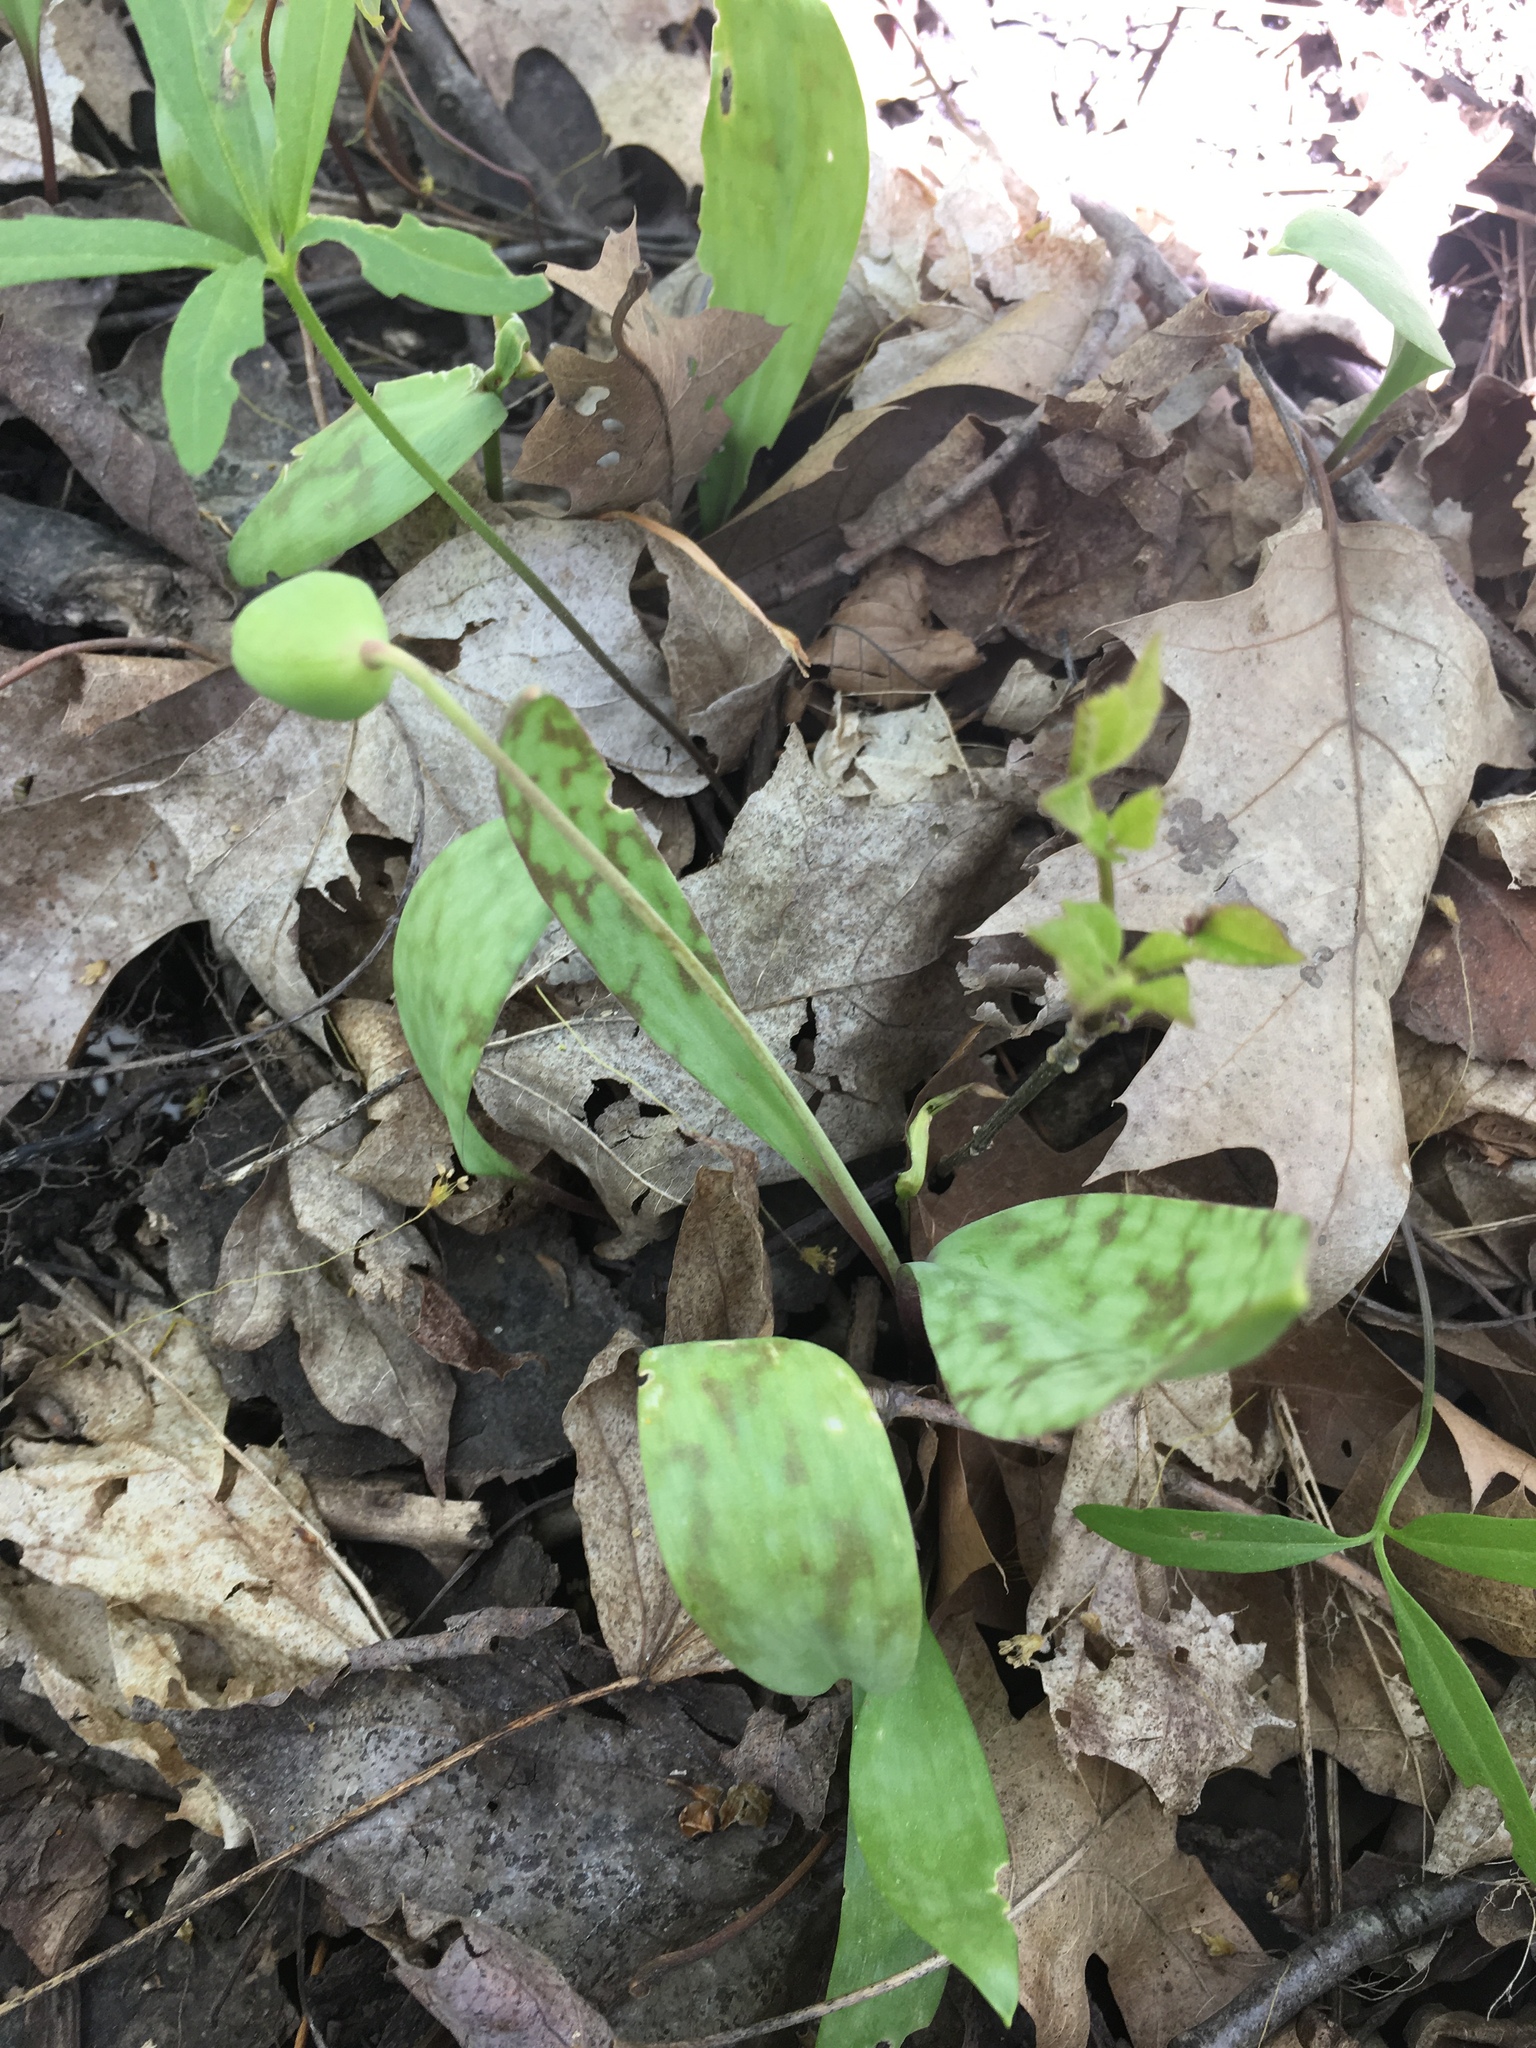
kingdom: Plantae
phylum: Tracheophyta
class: Liliopsida
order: Liliales
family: Liliaceae
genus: Erythronium
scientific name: Erythronium albidum
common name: White trout-lily
